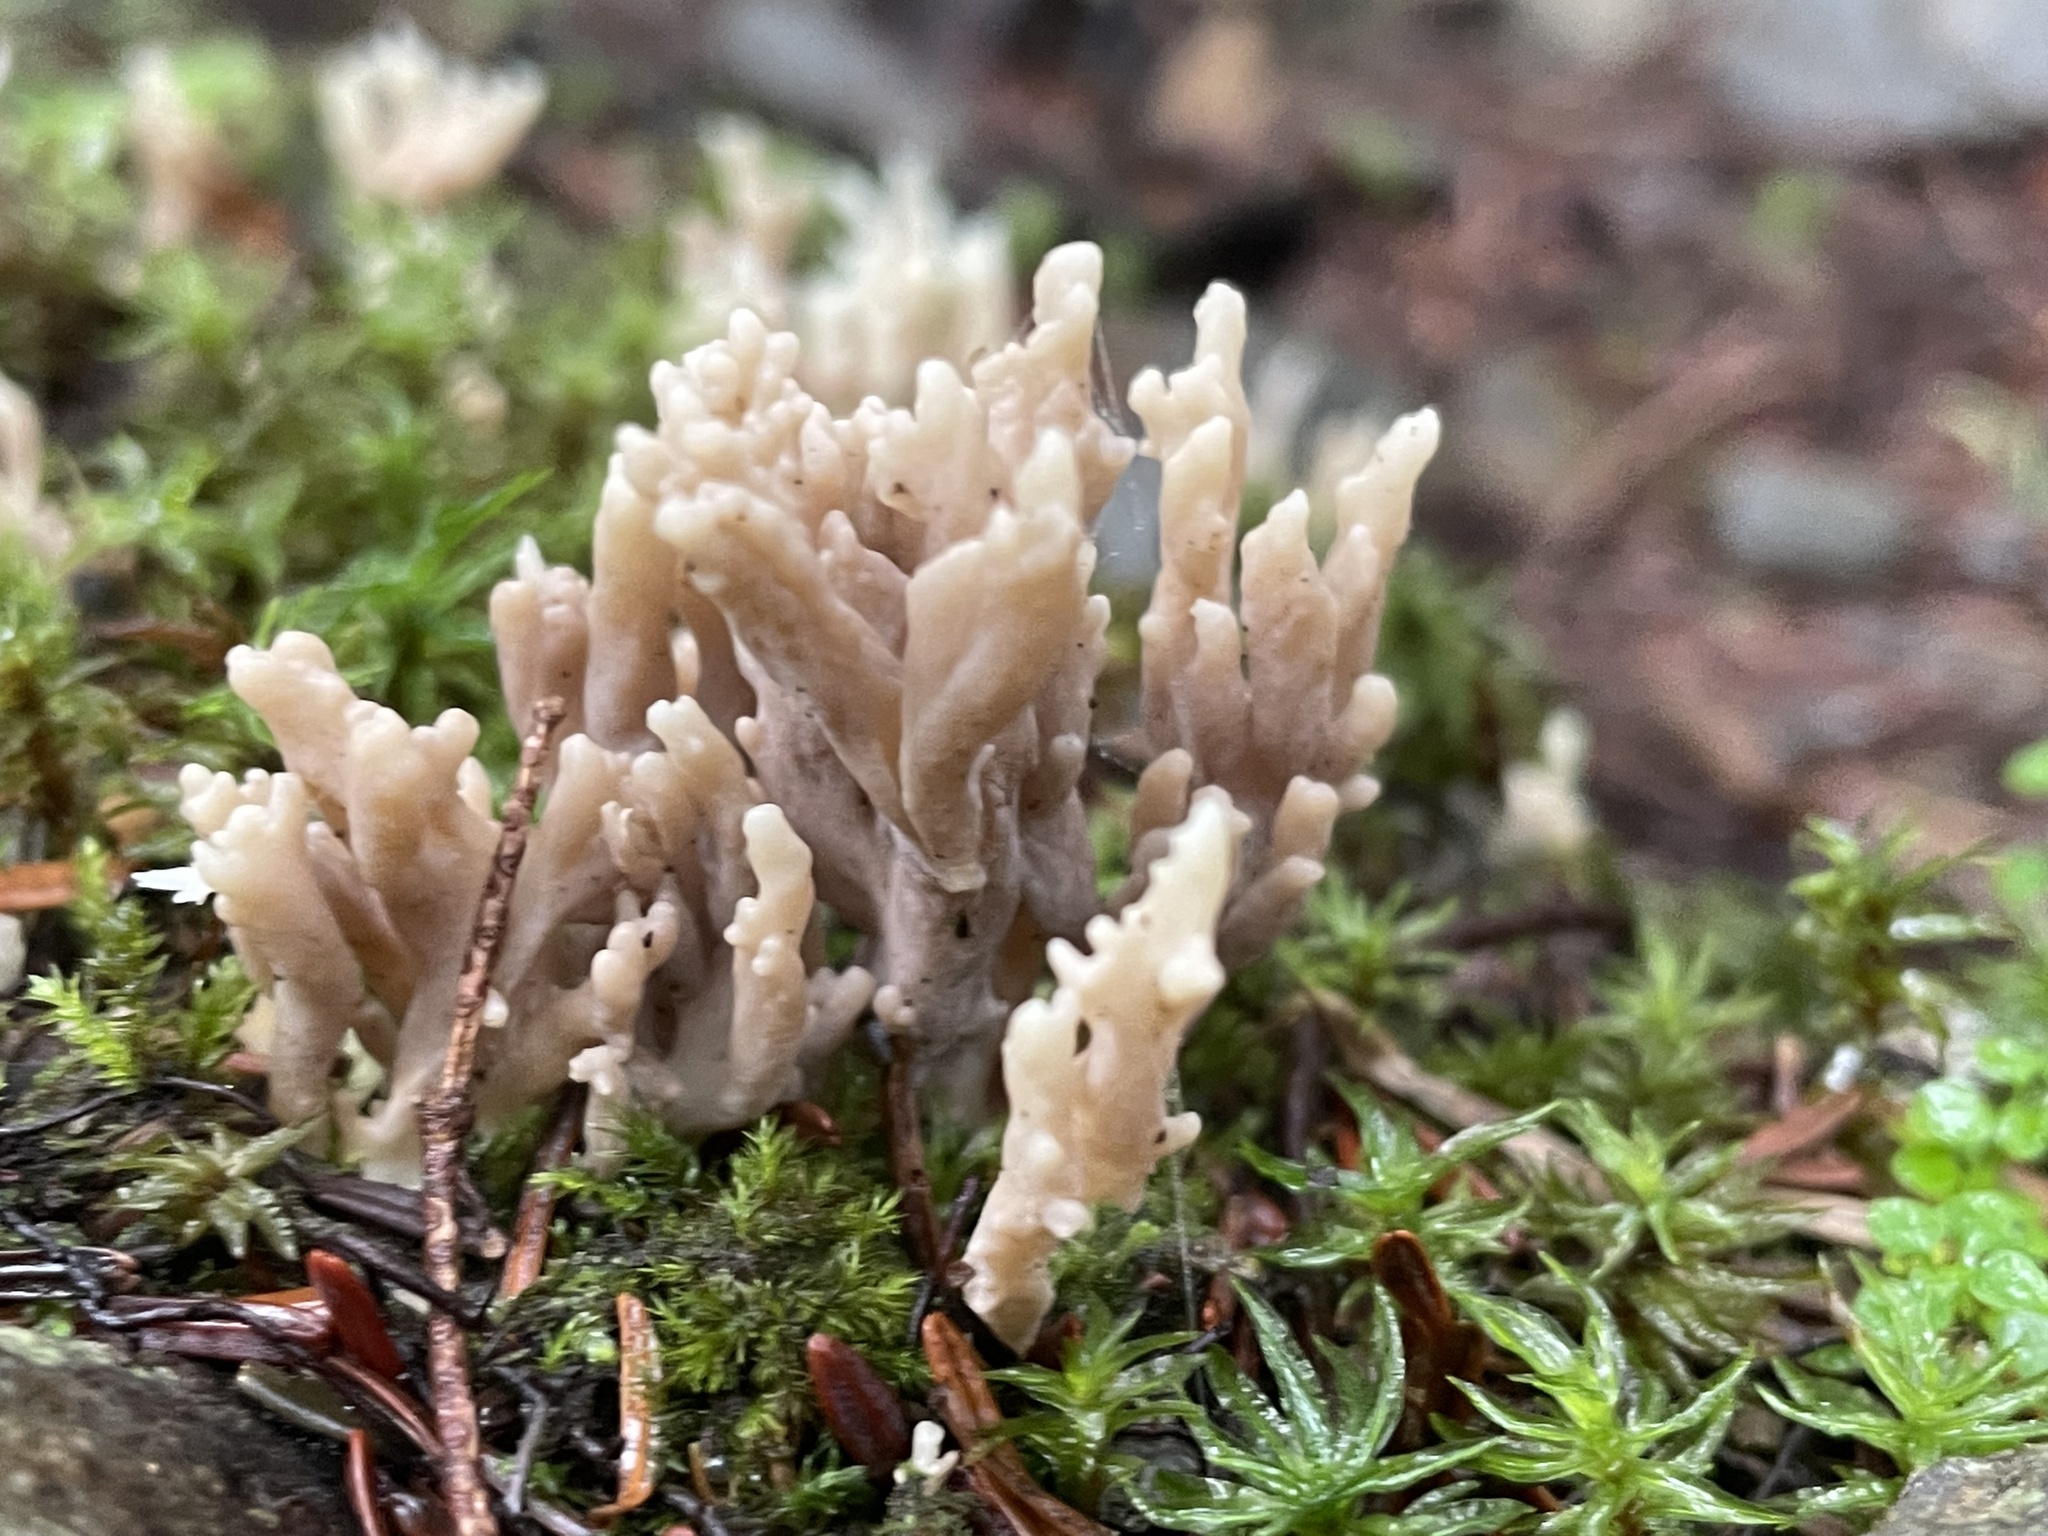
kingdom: Fungi
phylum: Basidiomycota
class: Agaricomycetes
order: Cantharellales
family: Hydnaceae
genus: Clavulina
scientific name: Clavulina cinerea
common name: Grey coral
